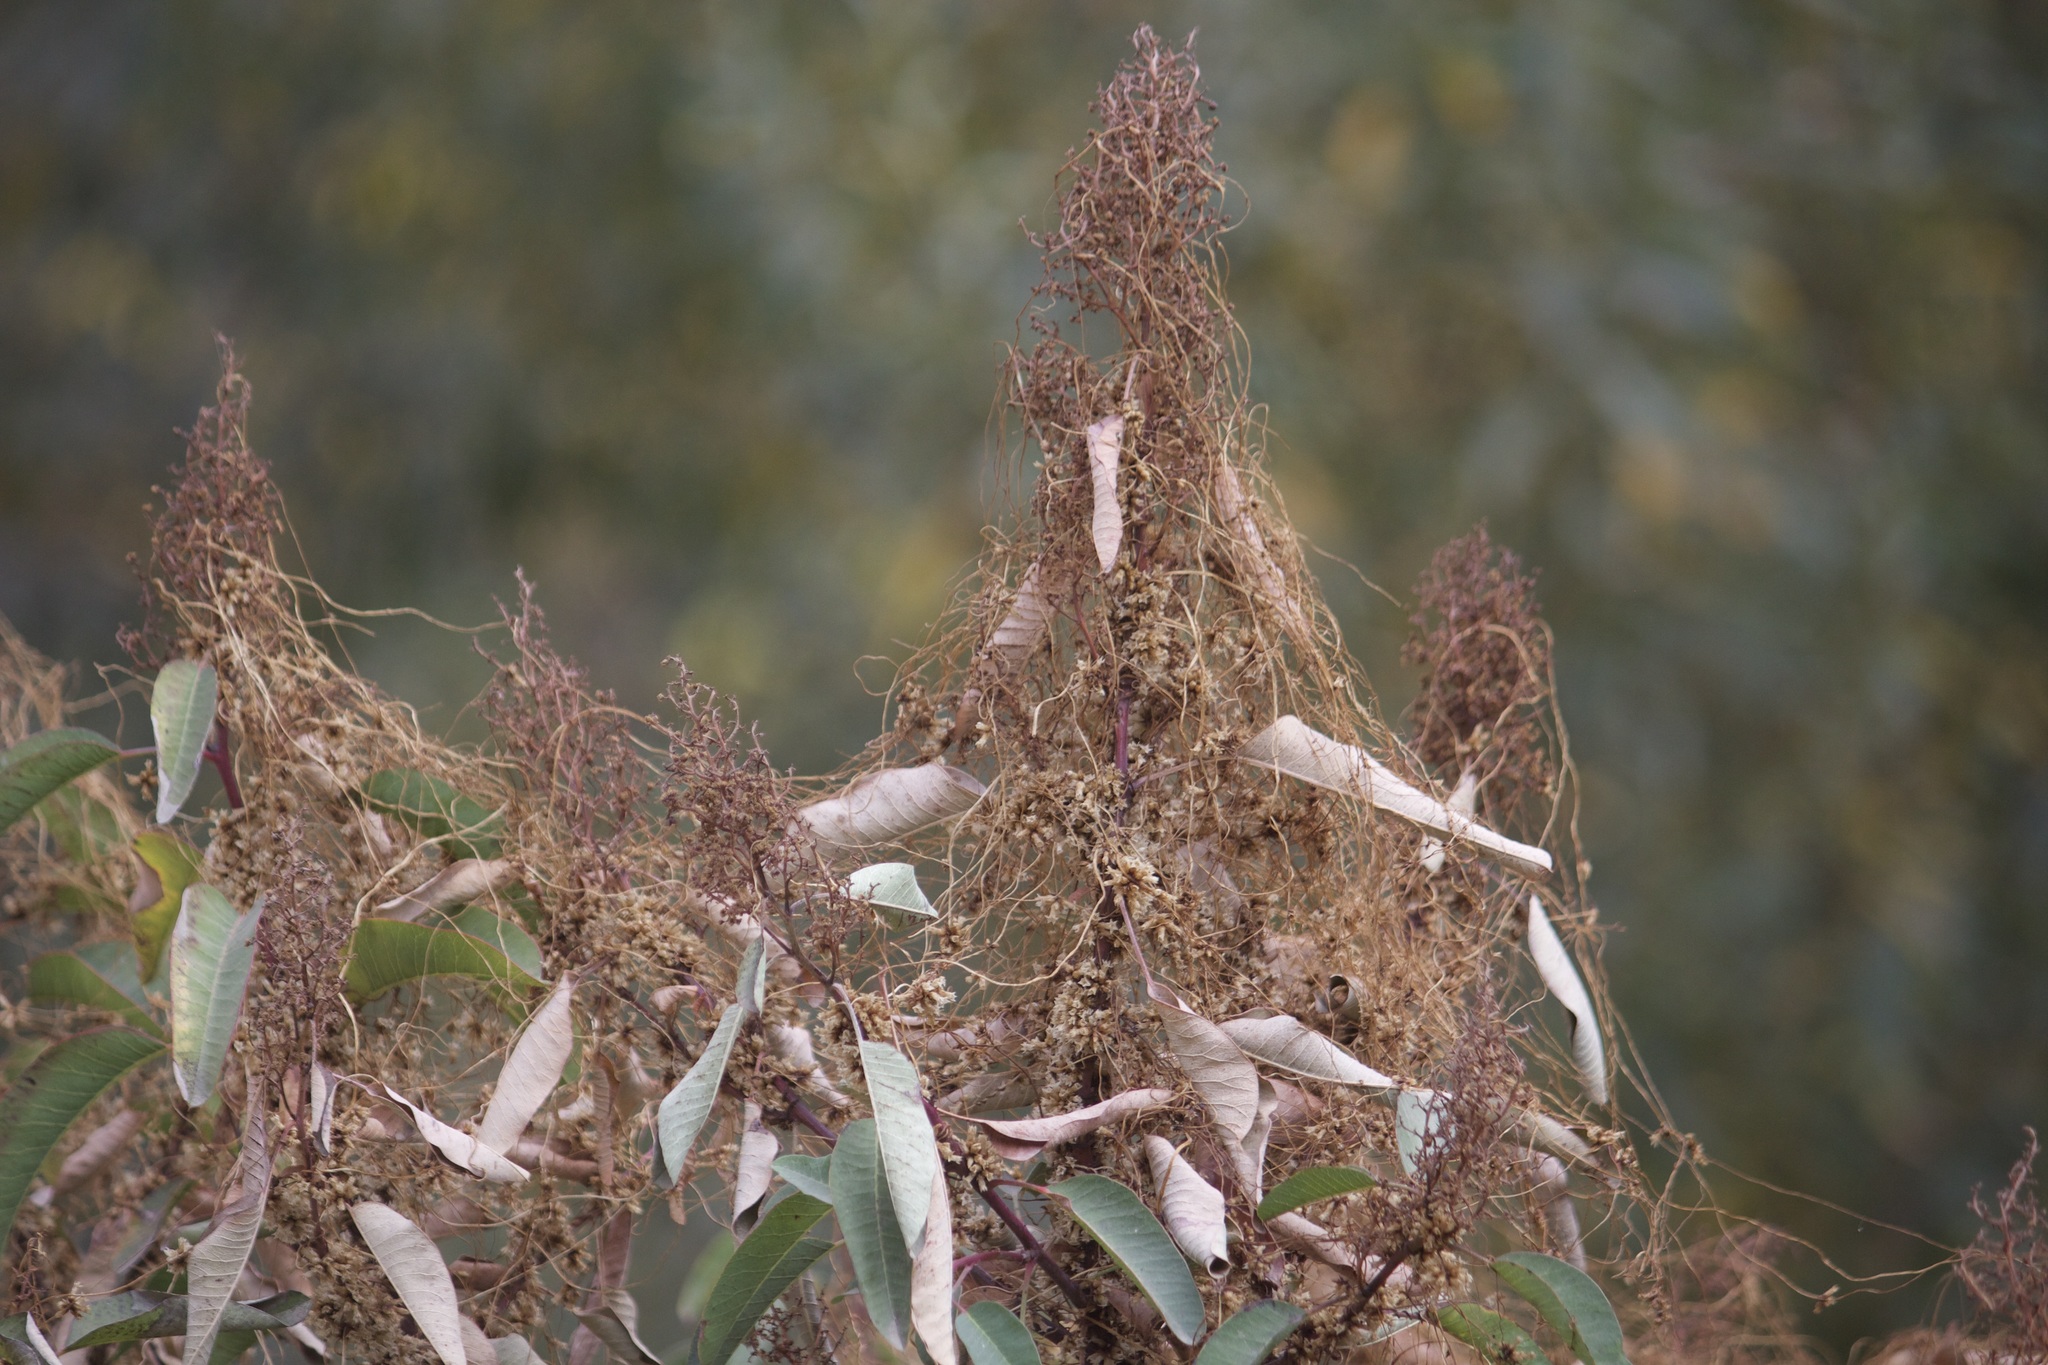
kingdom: Plantae
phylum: Tracheophyta
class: Magnoliopsida
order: Solanales
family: Convolvulaceae
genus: Cuscuta
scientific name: Cuscuta subinclusa
